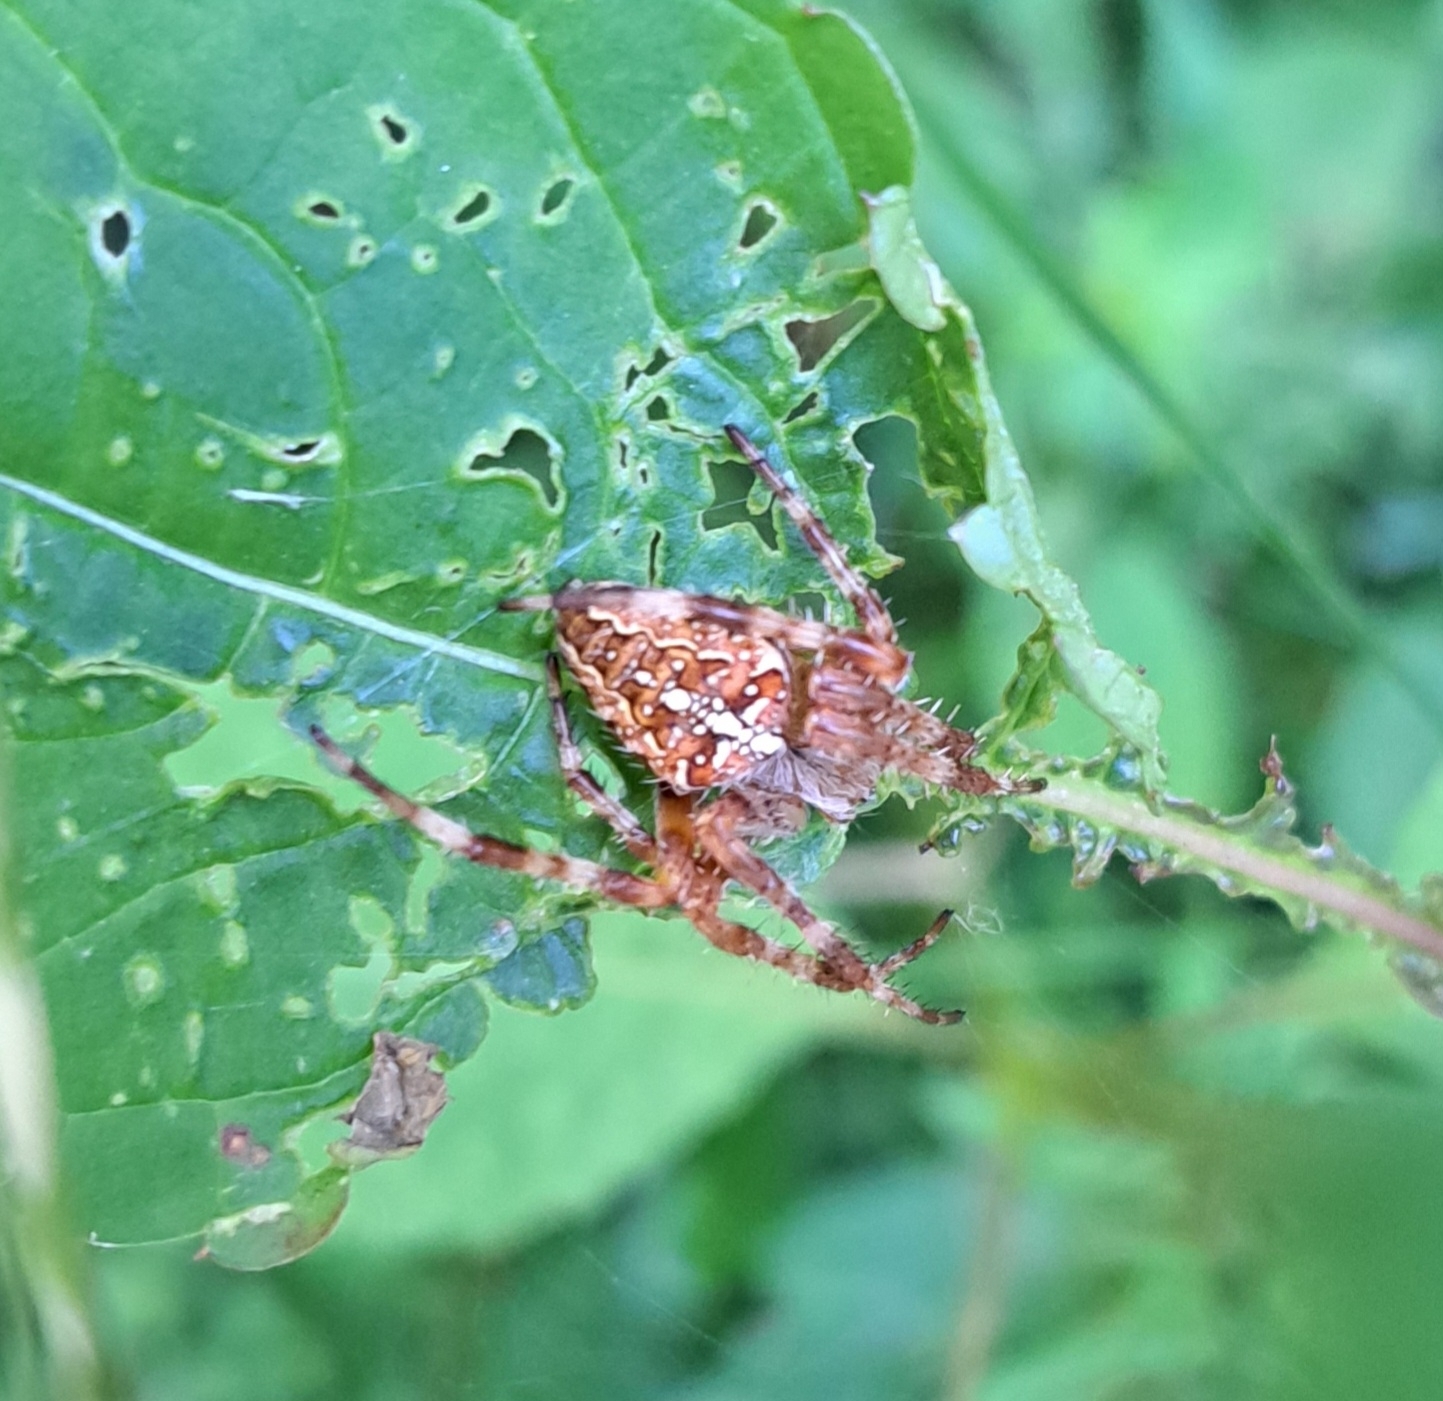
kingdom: Animalia
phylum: Arthropoda
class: Arachnida
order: Araneae
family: Araneidae
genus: Araneus
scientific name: Araneus diadematus
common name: Cross orbweaver
